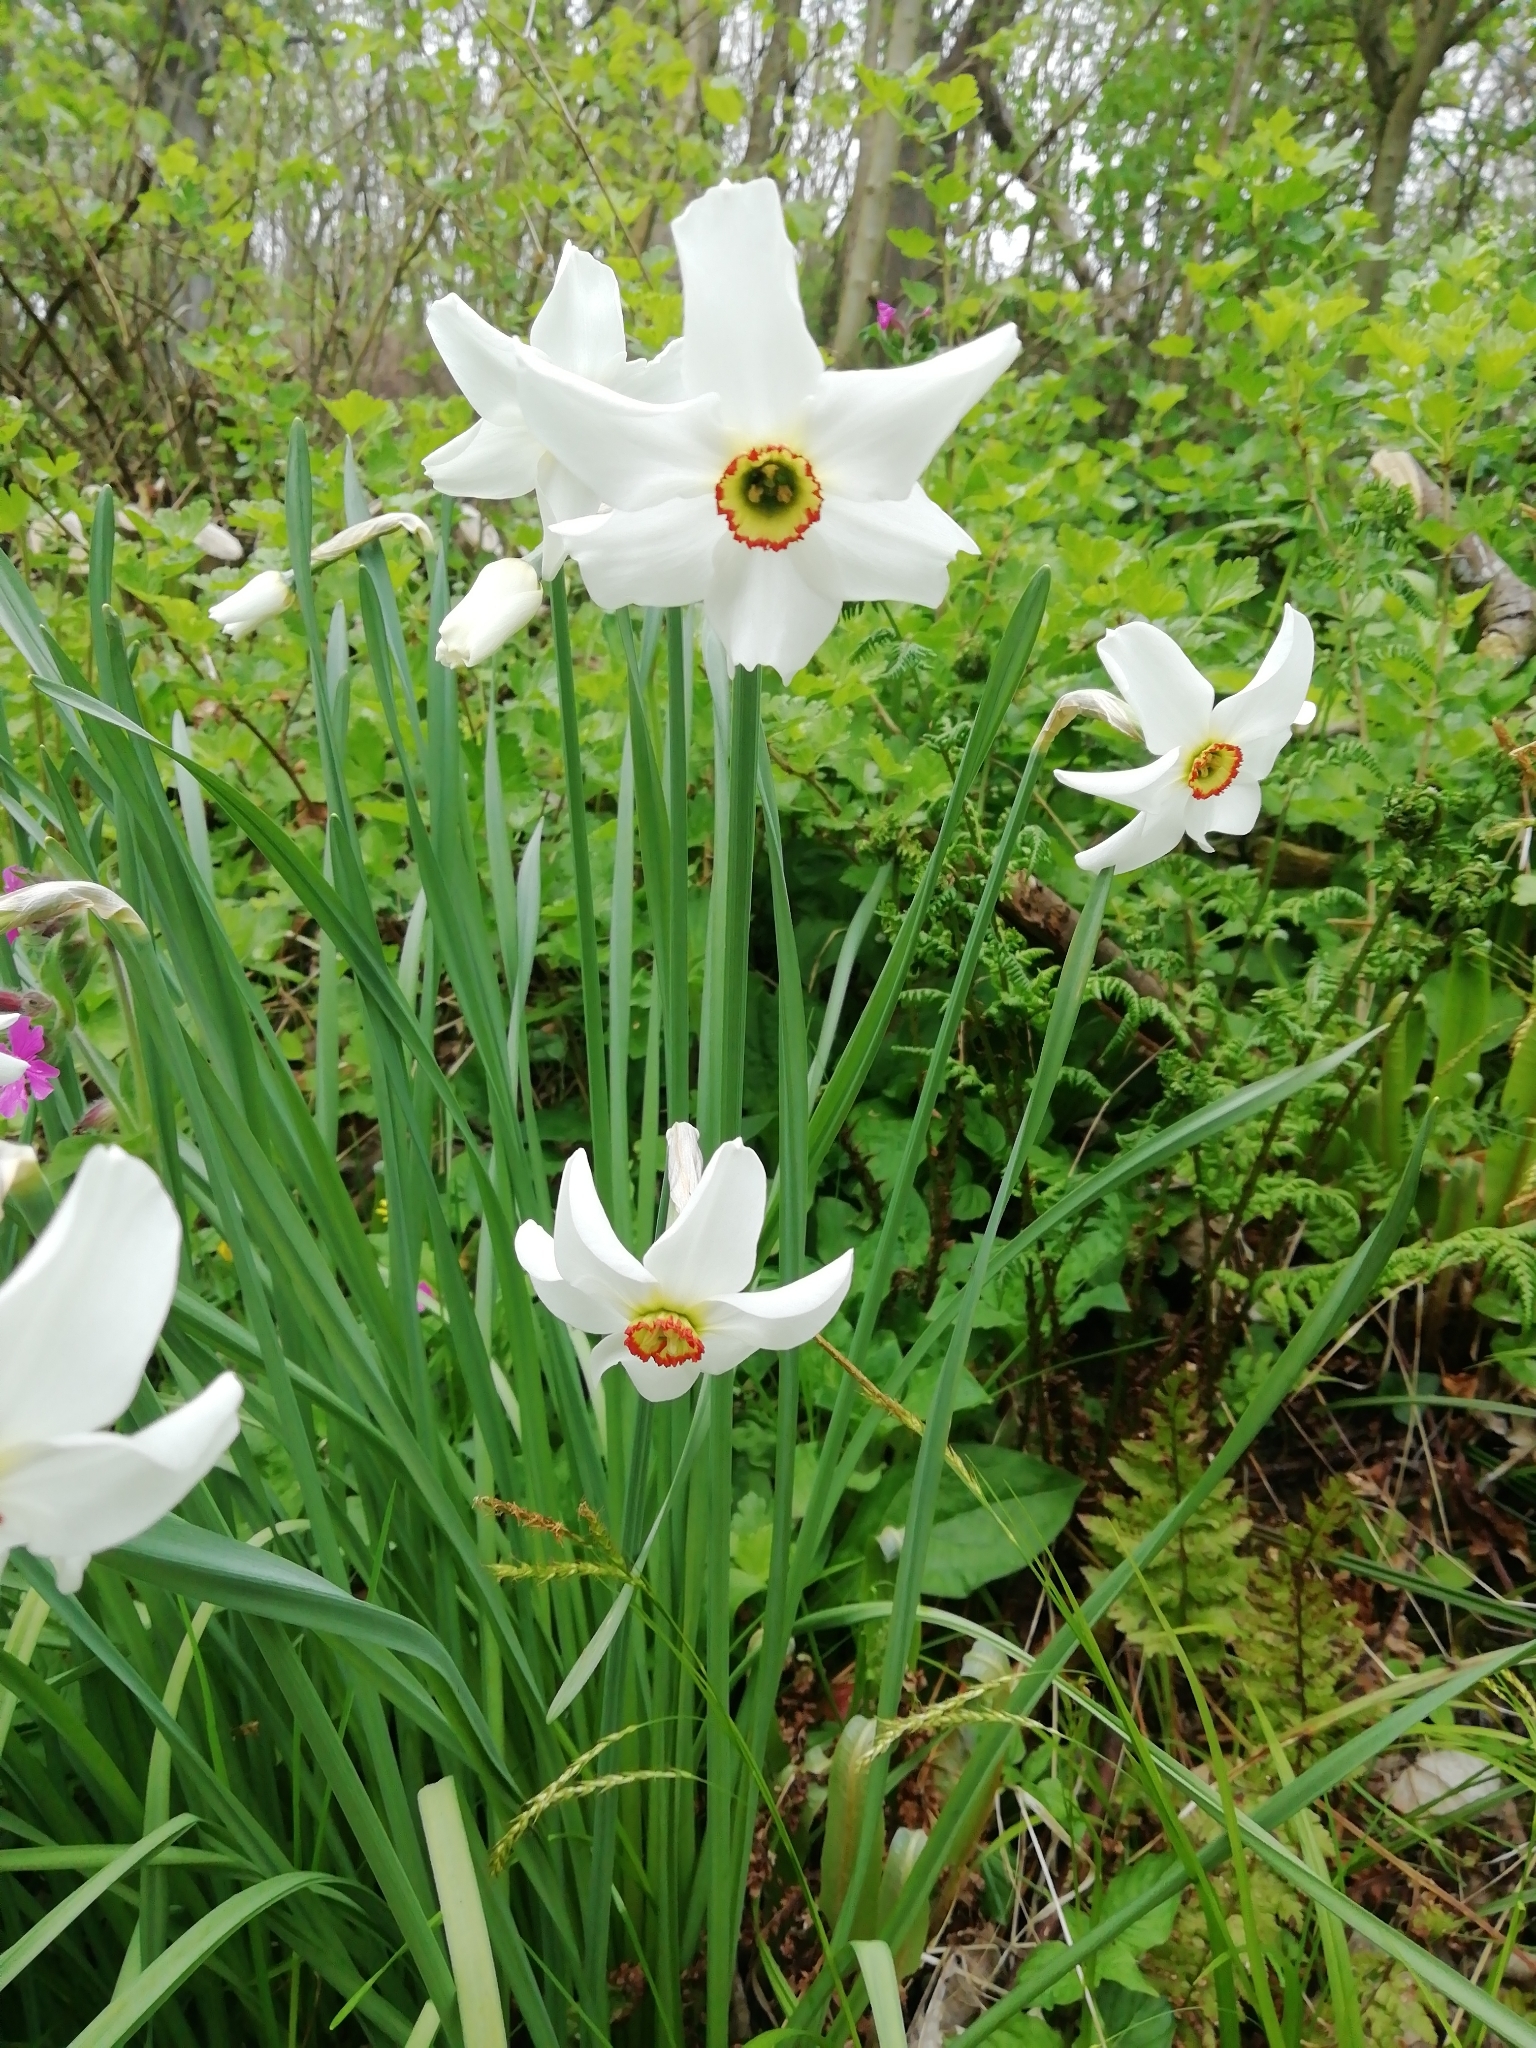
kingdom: Plantae
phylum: Tracheophyta
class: Liliopsida
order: Asparagales
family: Amaryllidaceae
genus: Narcissus
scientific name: Narcissus poeticus
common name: Pheasant's-eye daffodil
